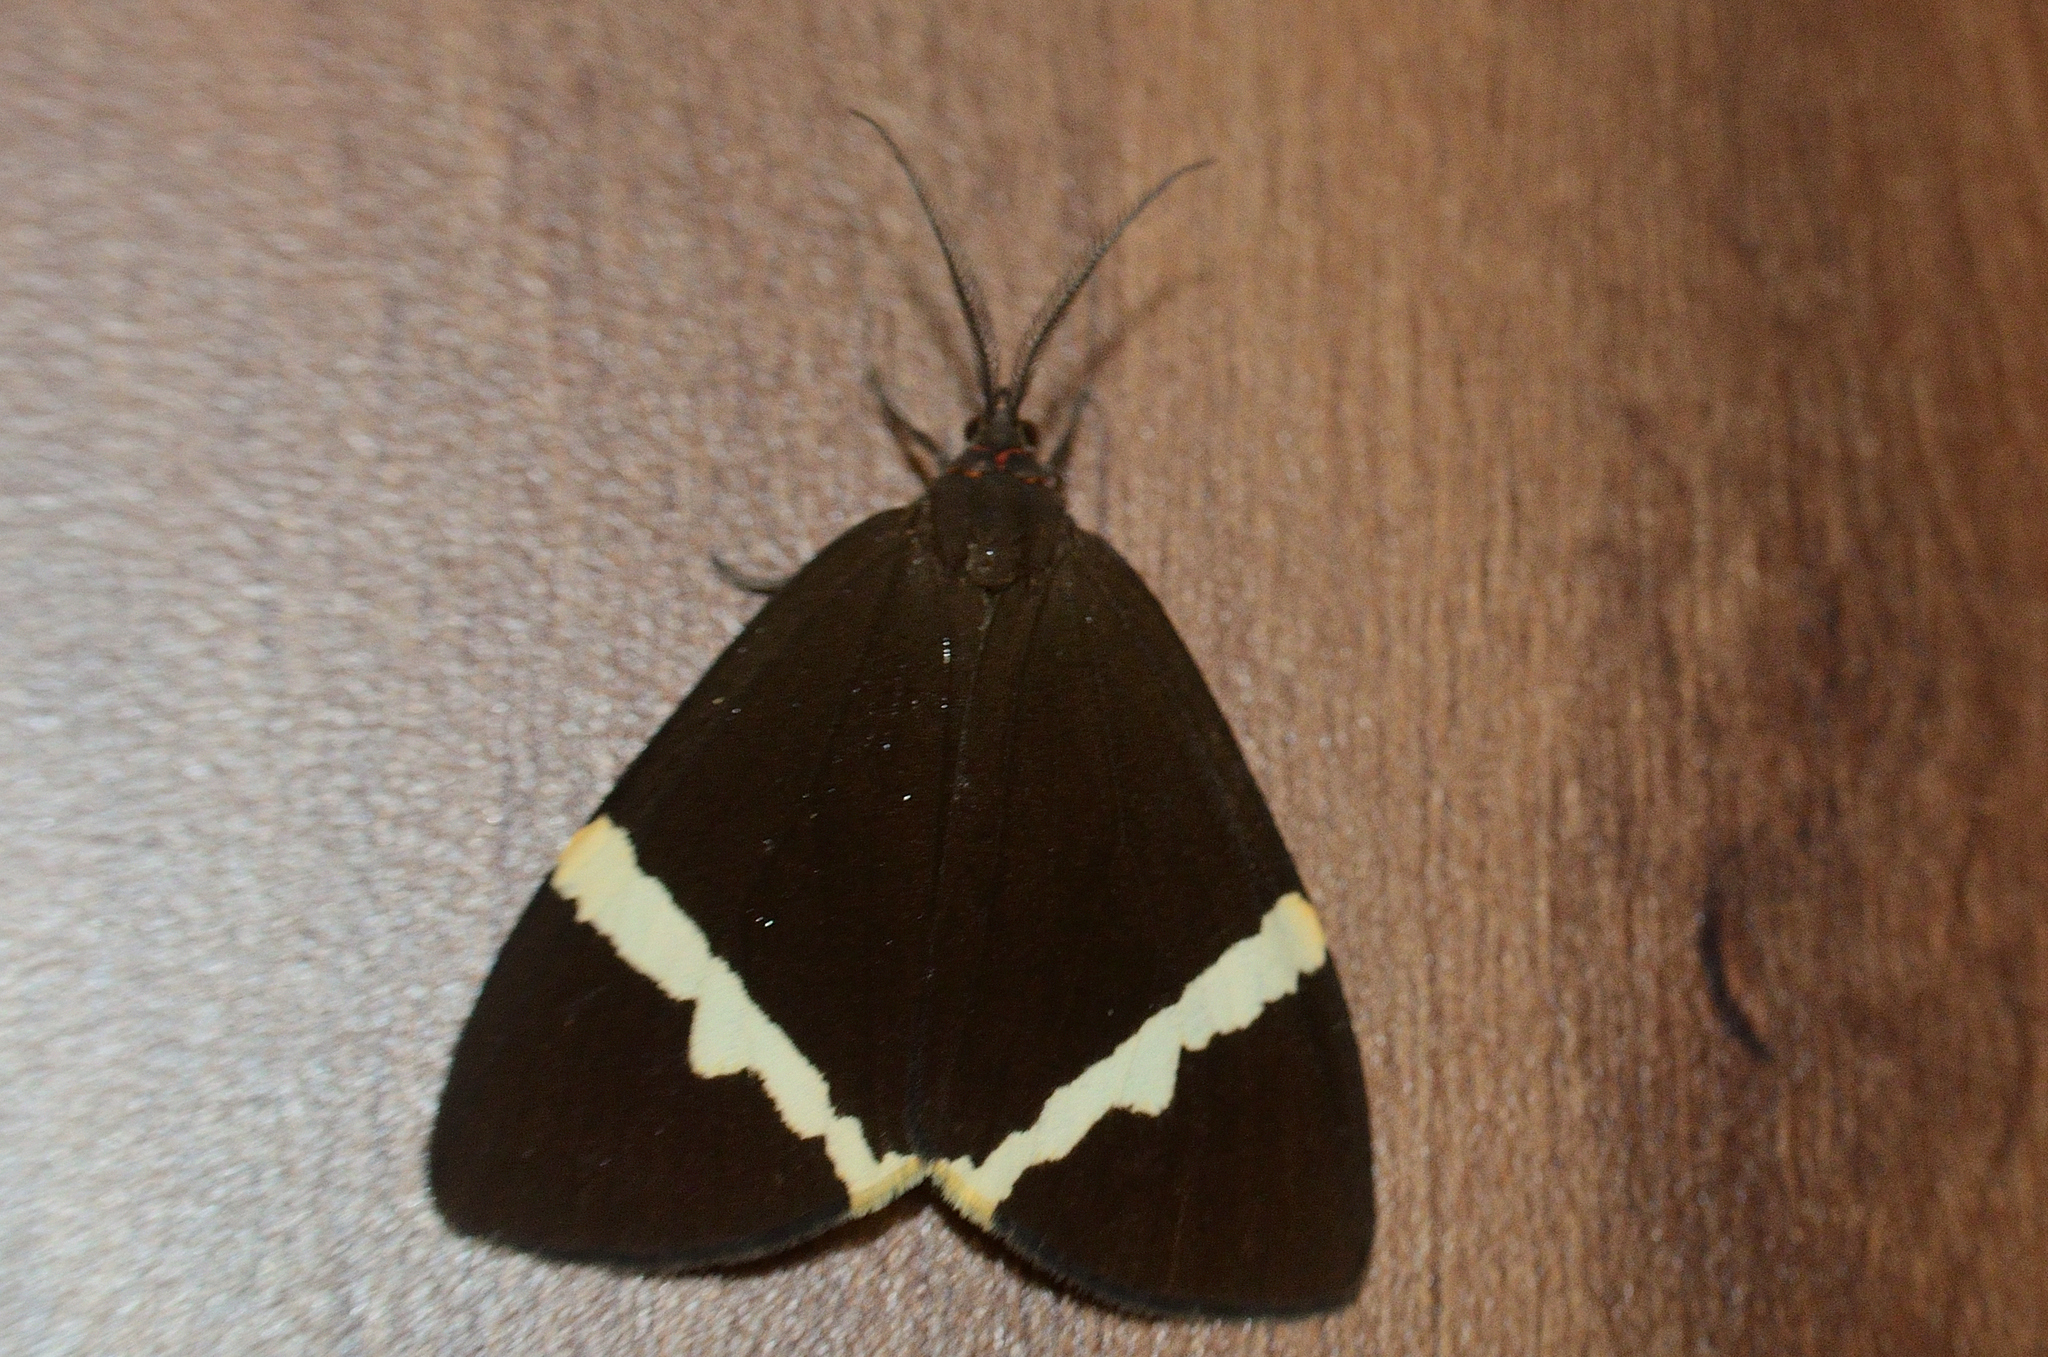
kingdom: Animalia
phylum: Arthropoda
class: Insecta
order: Lepidoptera
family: Erebidae
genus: Curoba
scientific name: Curoba sangarida
